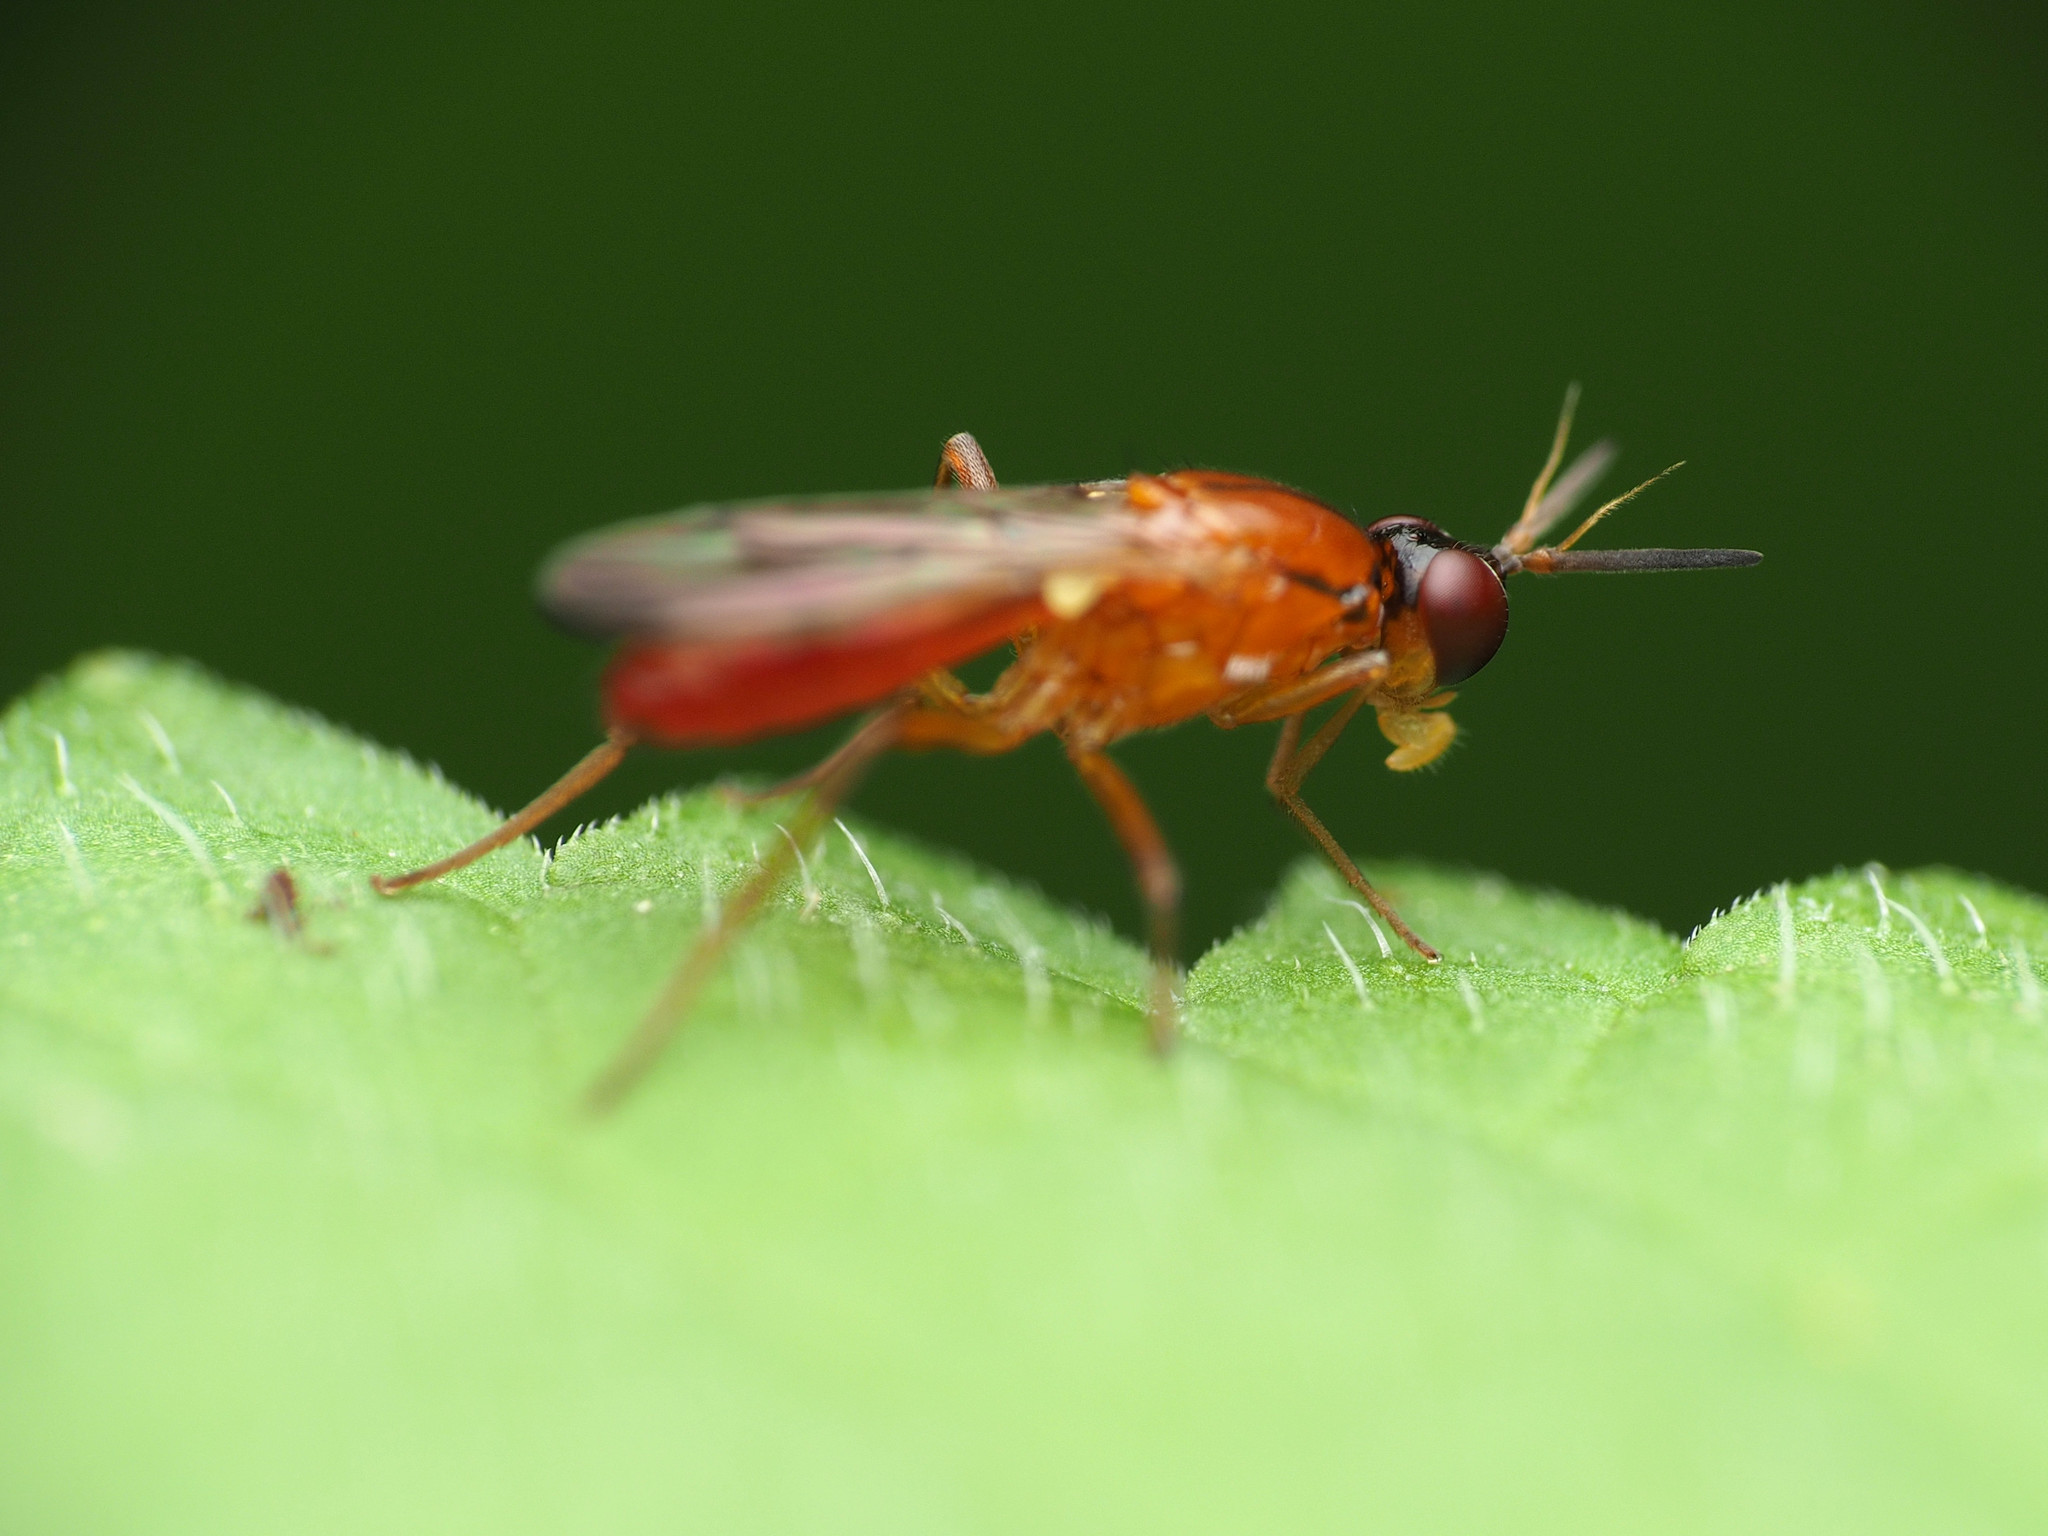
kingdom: Animalia
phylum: Arthropoda
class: Insecta
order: Diptera
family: Psilidae
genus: Loxocera
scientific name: Loxocera cylindrica
